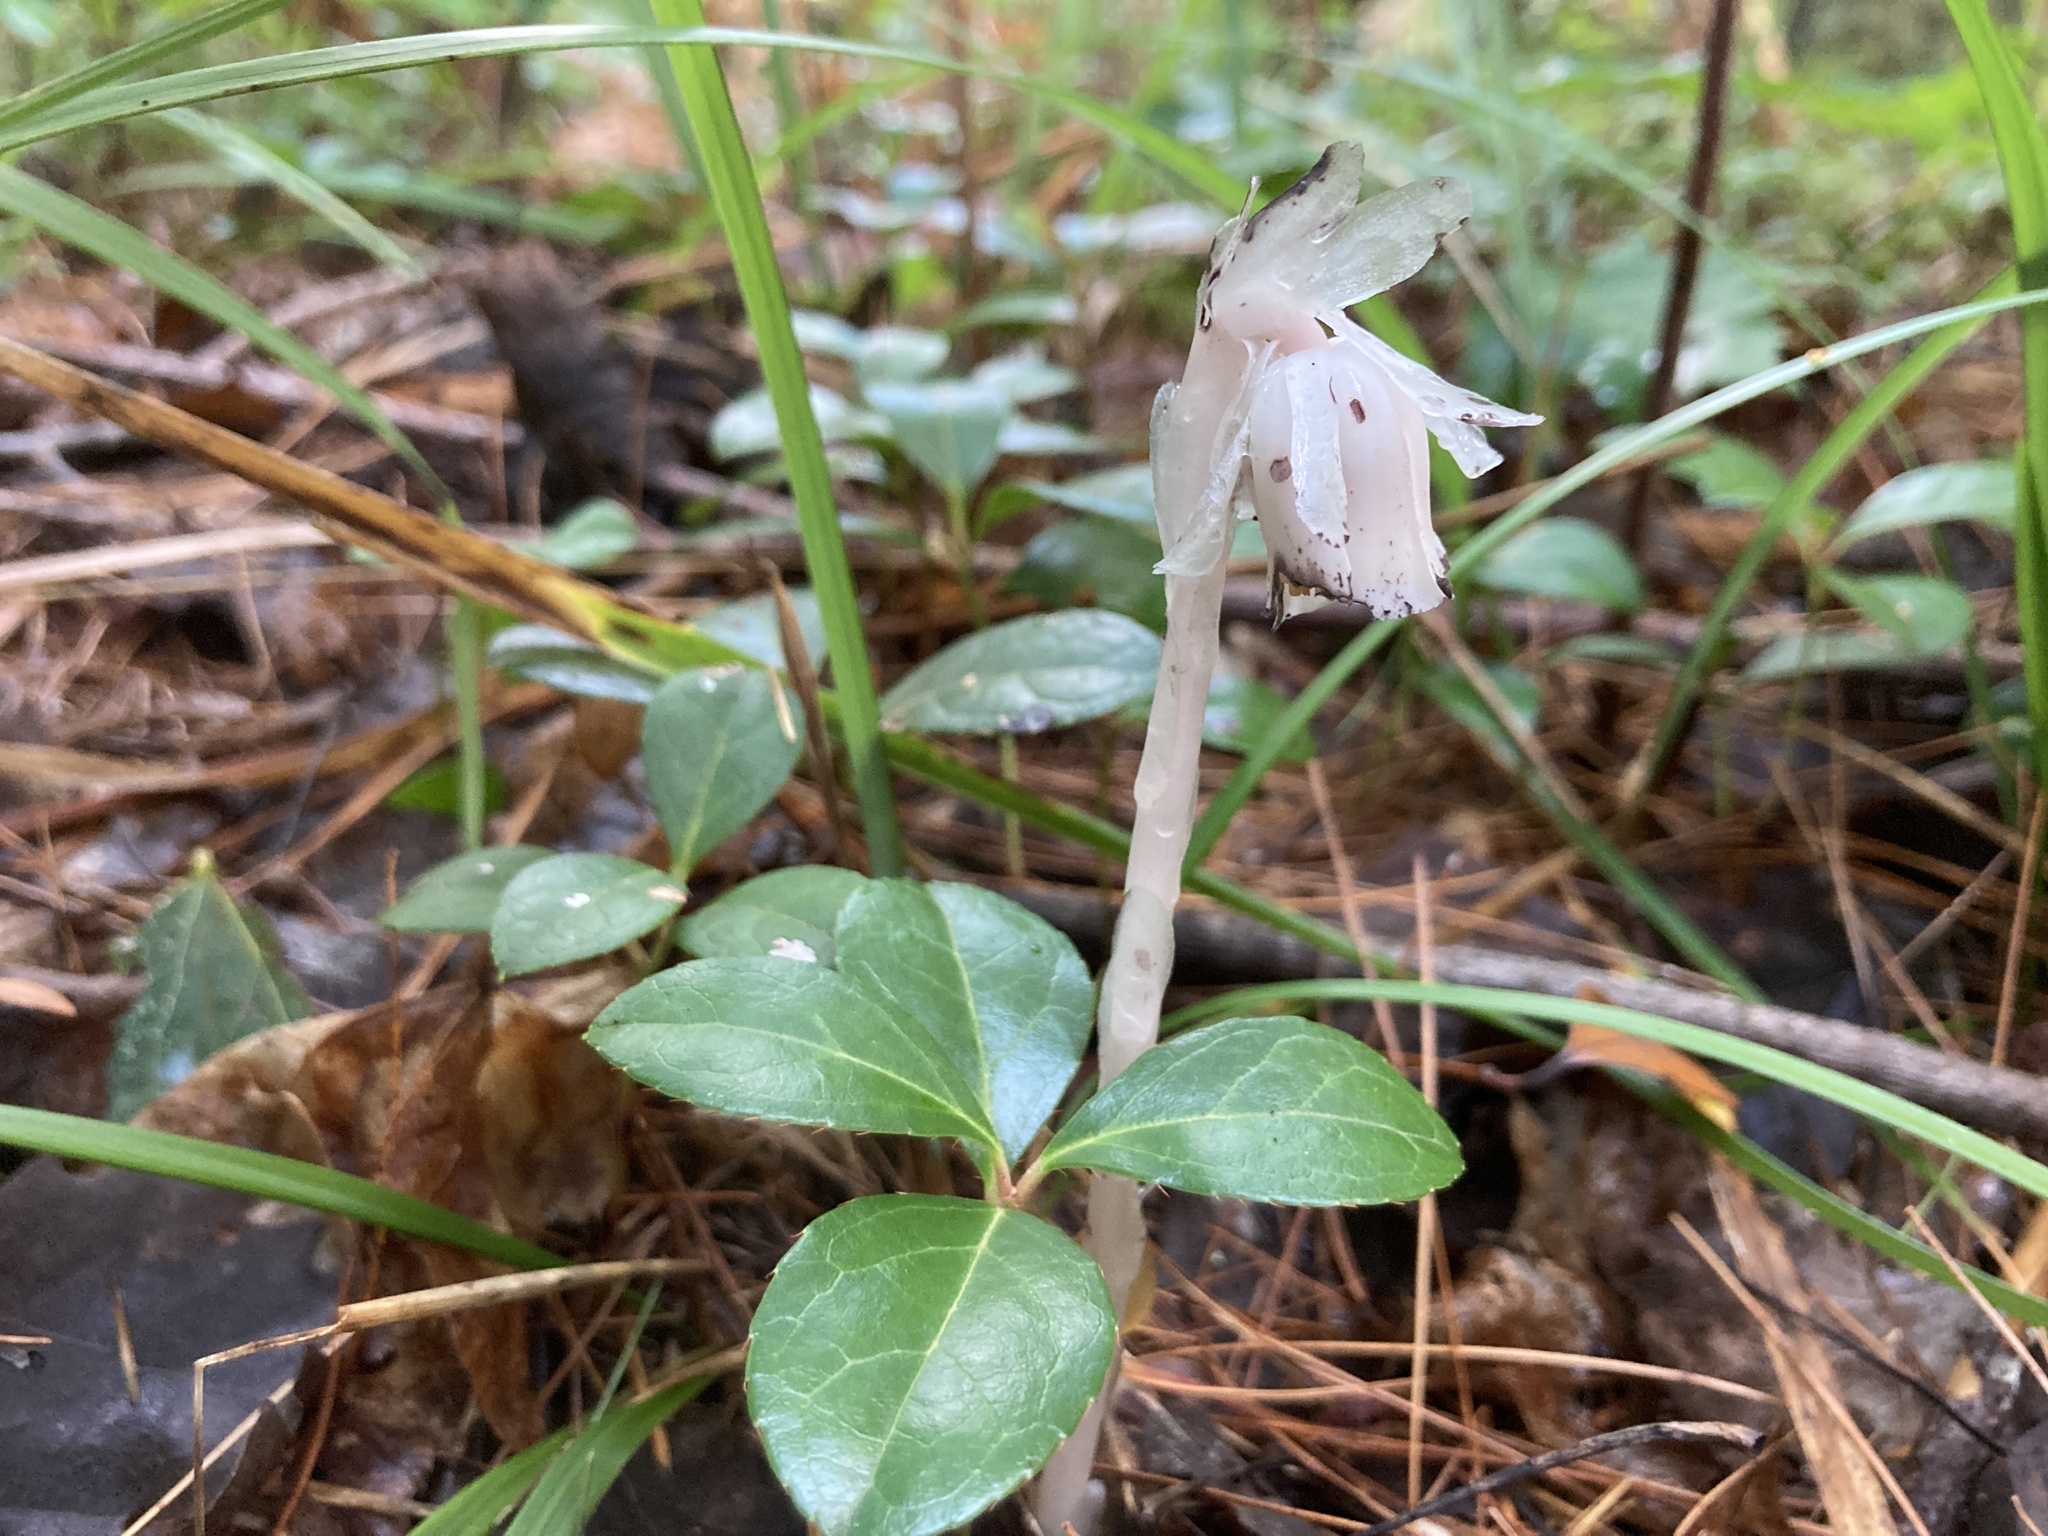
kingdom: Plantae
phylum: Tracheophyta
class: Magnoliopsida
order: Ericales
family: Ericaceae
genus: Monotropa
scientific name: Monotropa uniflora
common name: Convulsion root
